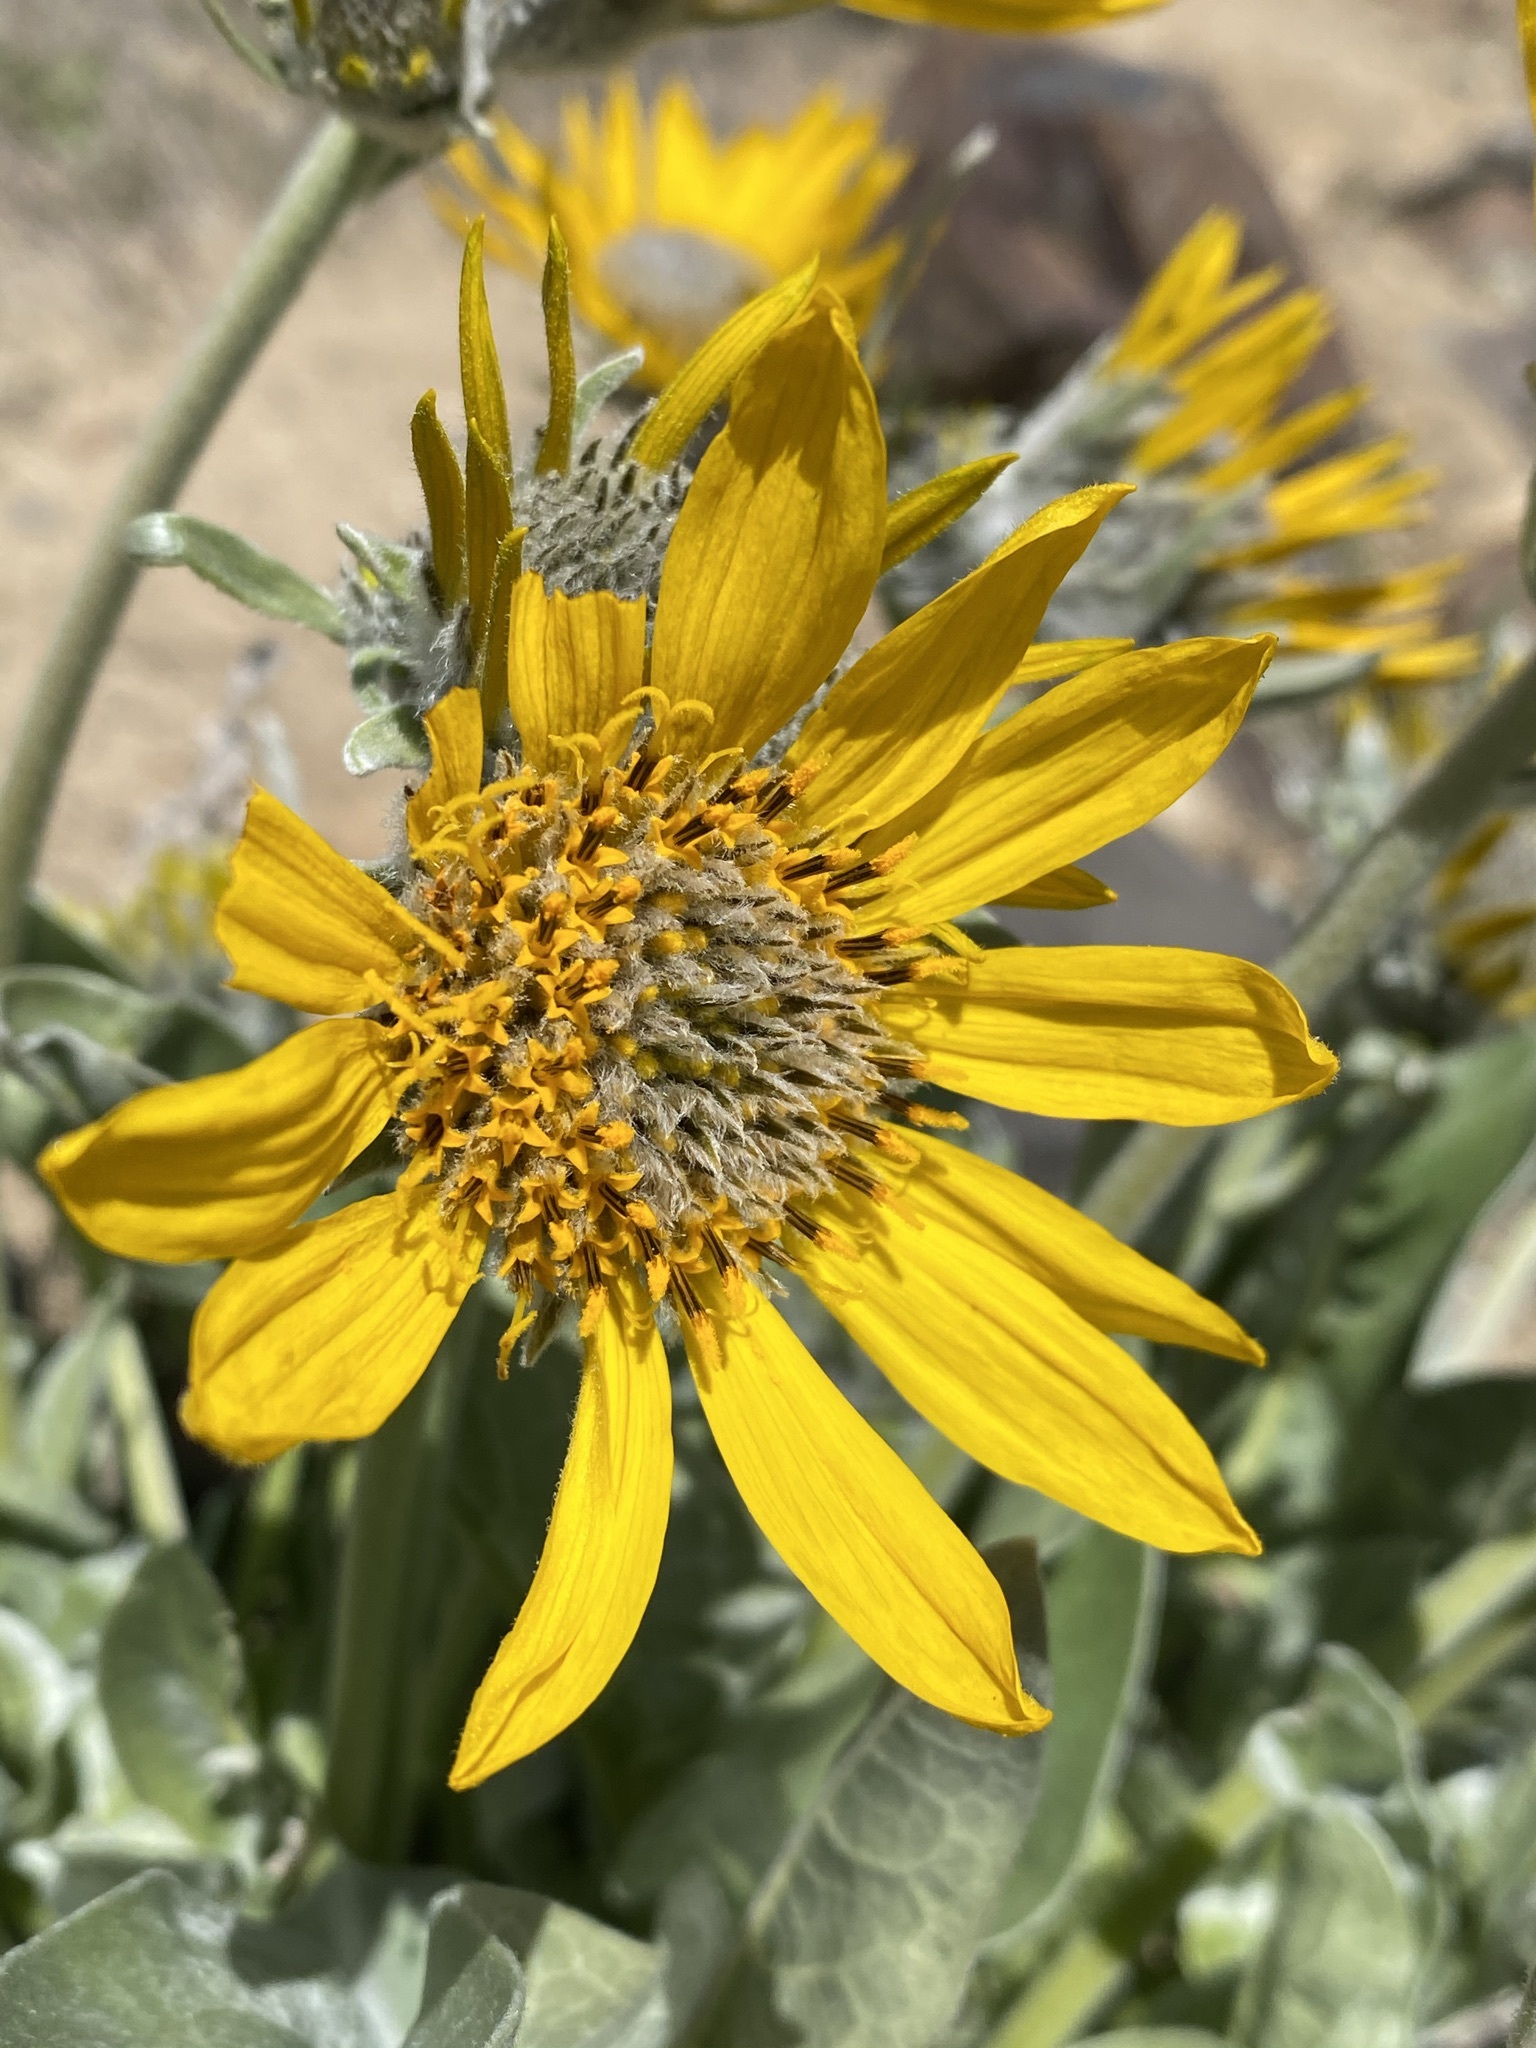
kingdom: Plantae
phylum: Tracheophyta
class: Magnoliopsida
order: Asterales
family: Asteraceae
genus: Wyethia
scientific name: Wyethia sagittata
